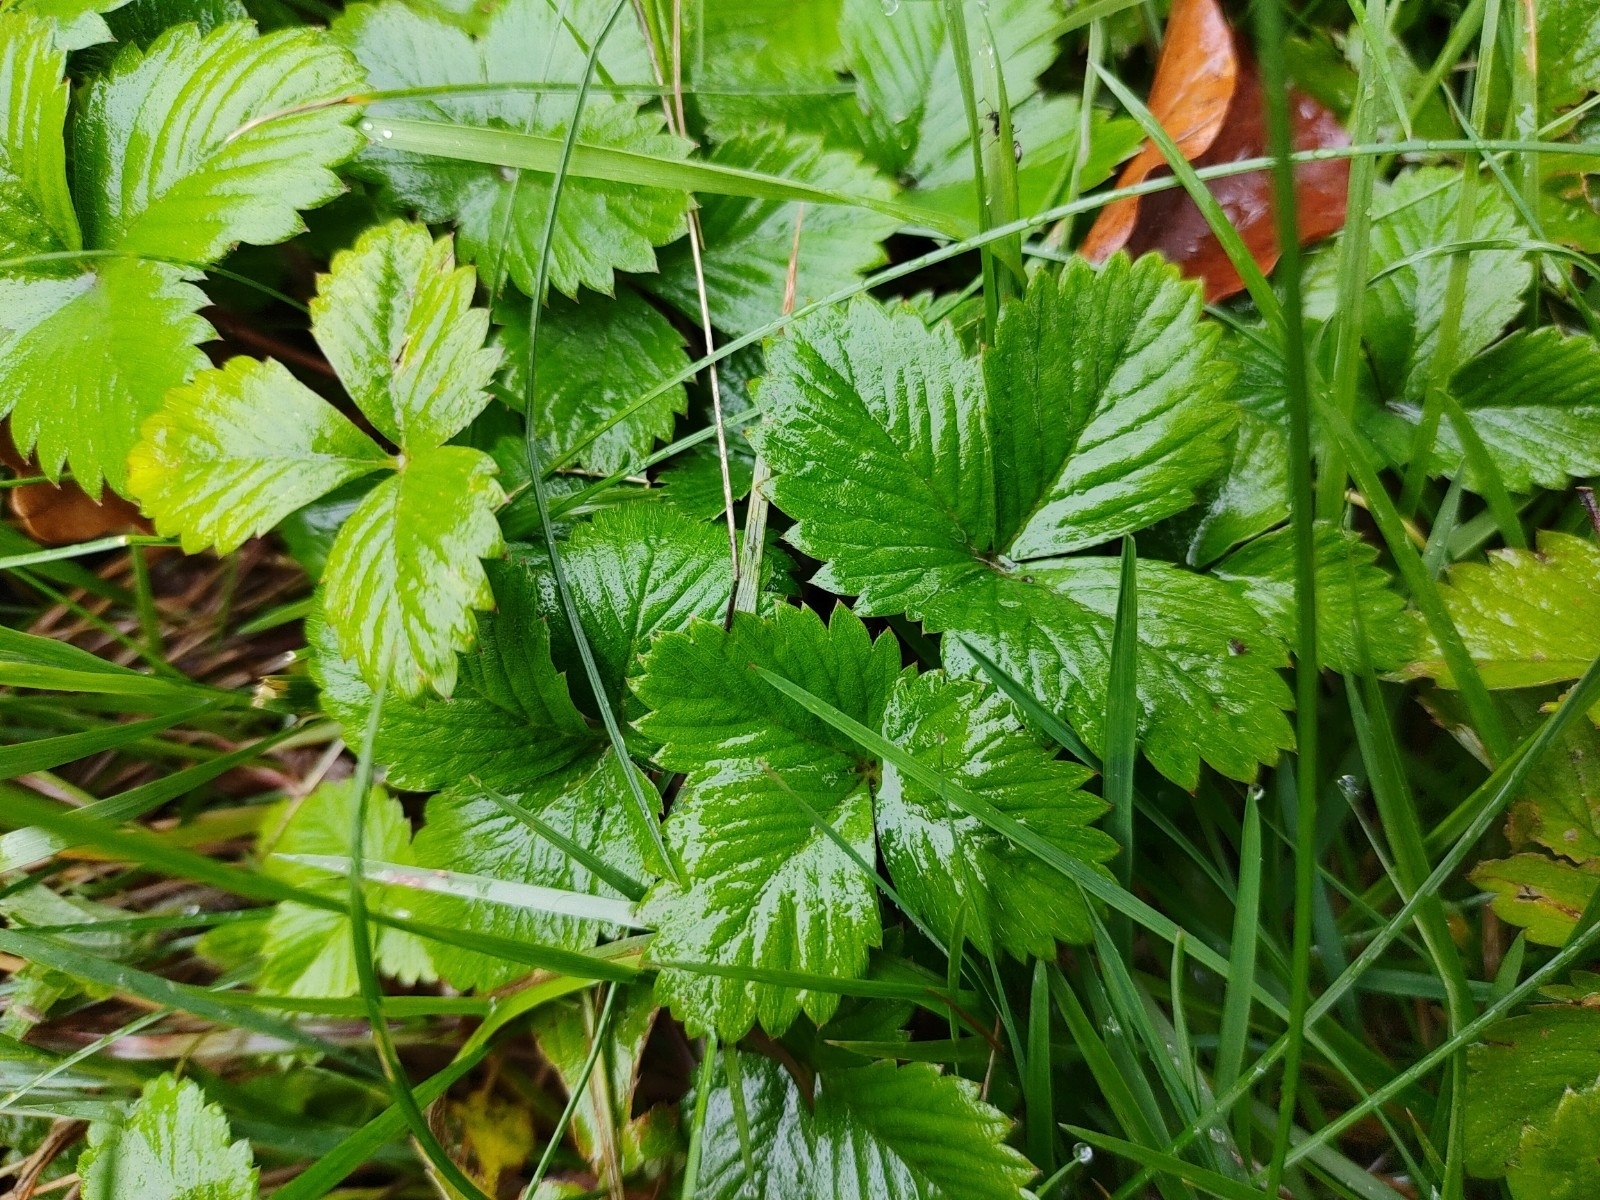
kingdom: Plantae
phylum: Tracheophyta
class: Magnoliopsida
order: Rosales
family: Rosaceae
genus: Fragaria
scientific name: Fragaria vesca
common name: Wild strawberry
